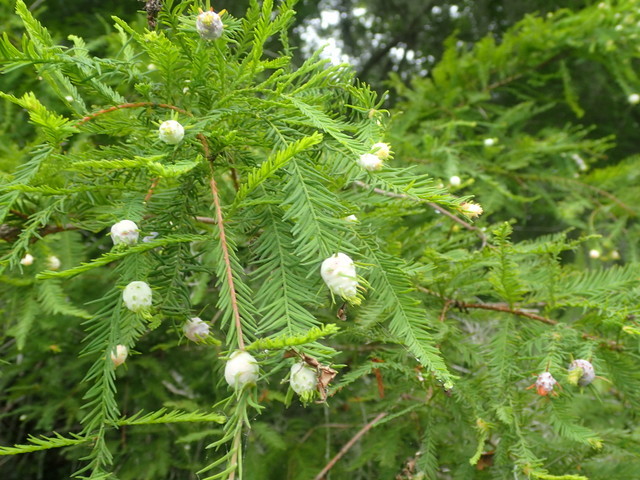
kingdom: Animalia
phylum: Arthropoda
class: Insecta
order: Diptera
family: Cecidomyiidae
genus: Taxodiomyia
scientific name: Taxodiomyia cupressiananassa
